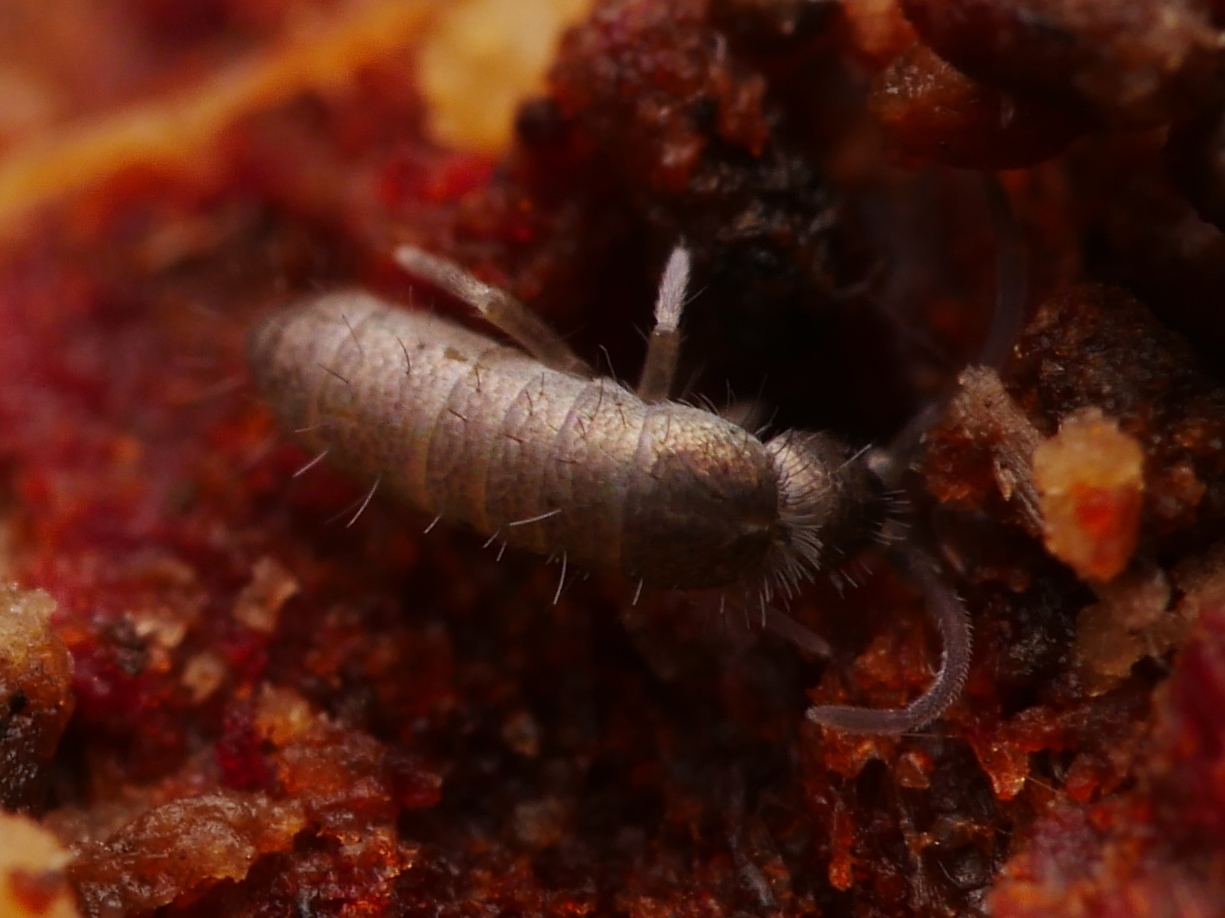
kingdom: Animalia
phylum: Arthropoda
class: Collembola
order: Entomobryomorpha
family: Tomoceridae
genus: Tomocerus
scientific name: Tomocerus minor
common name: Springtail
